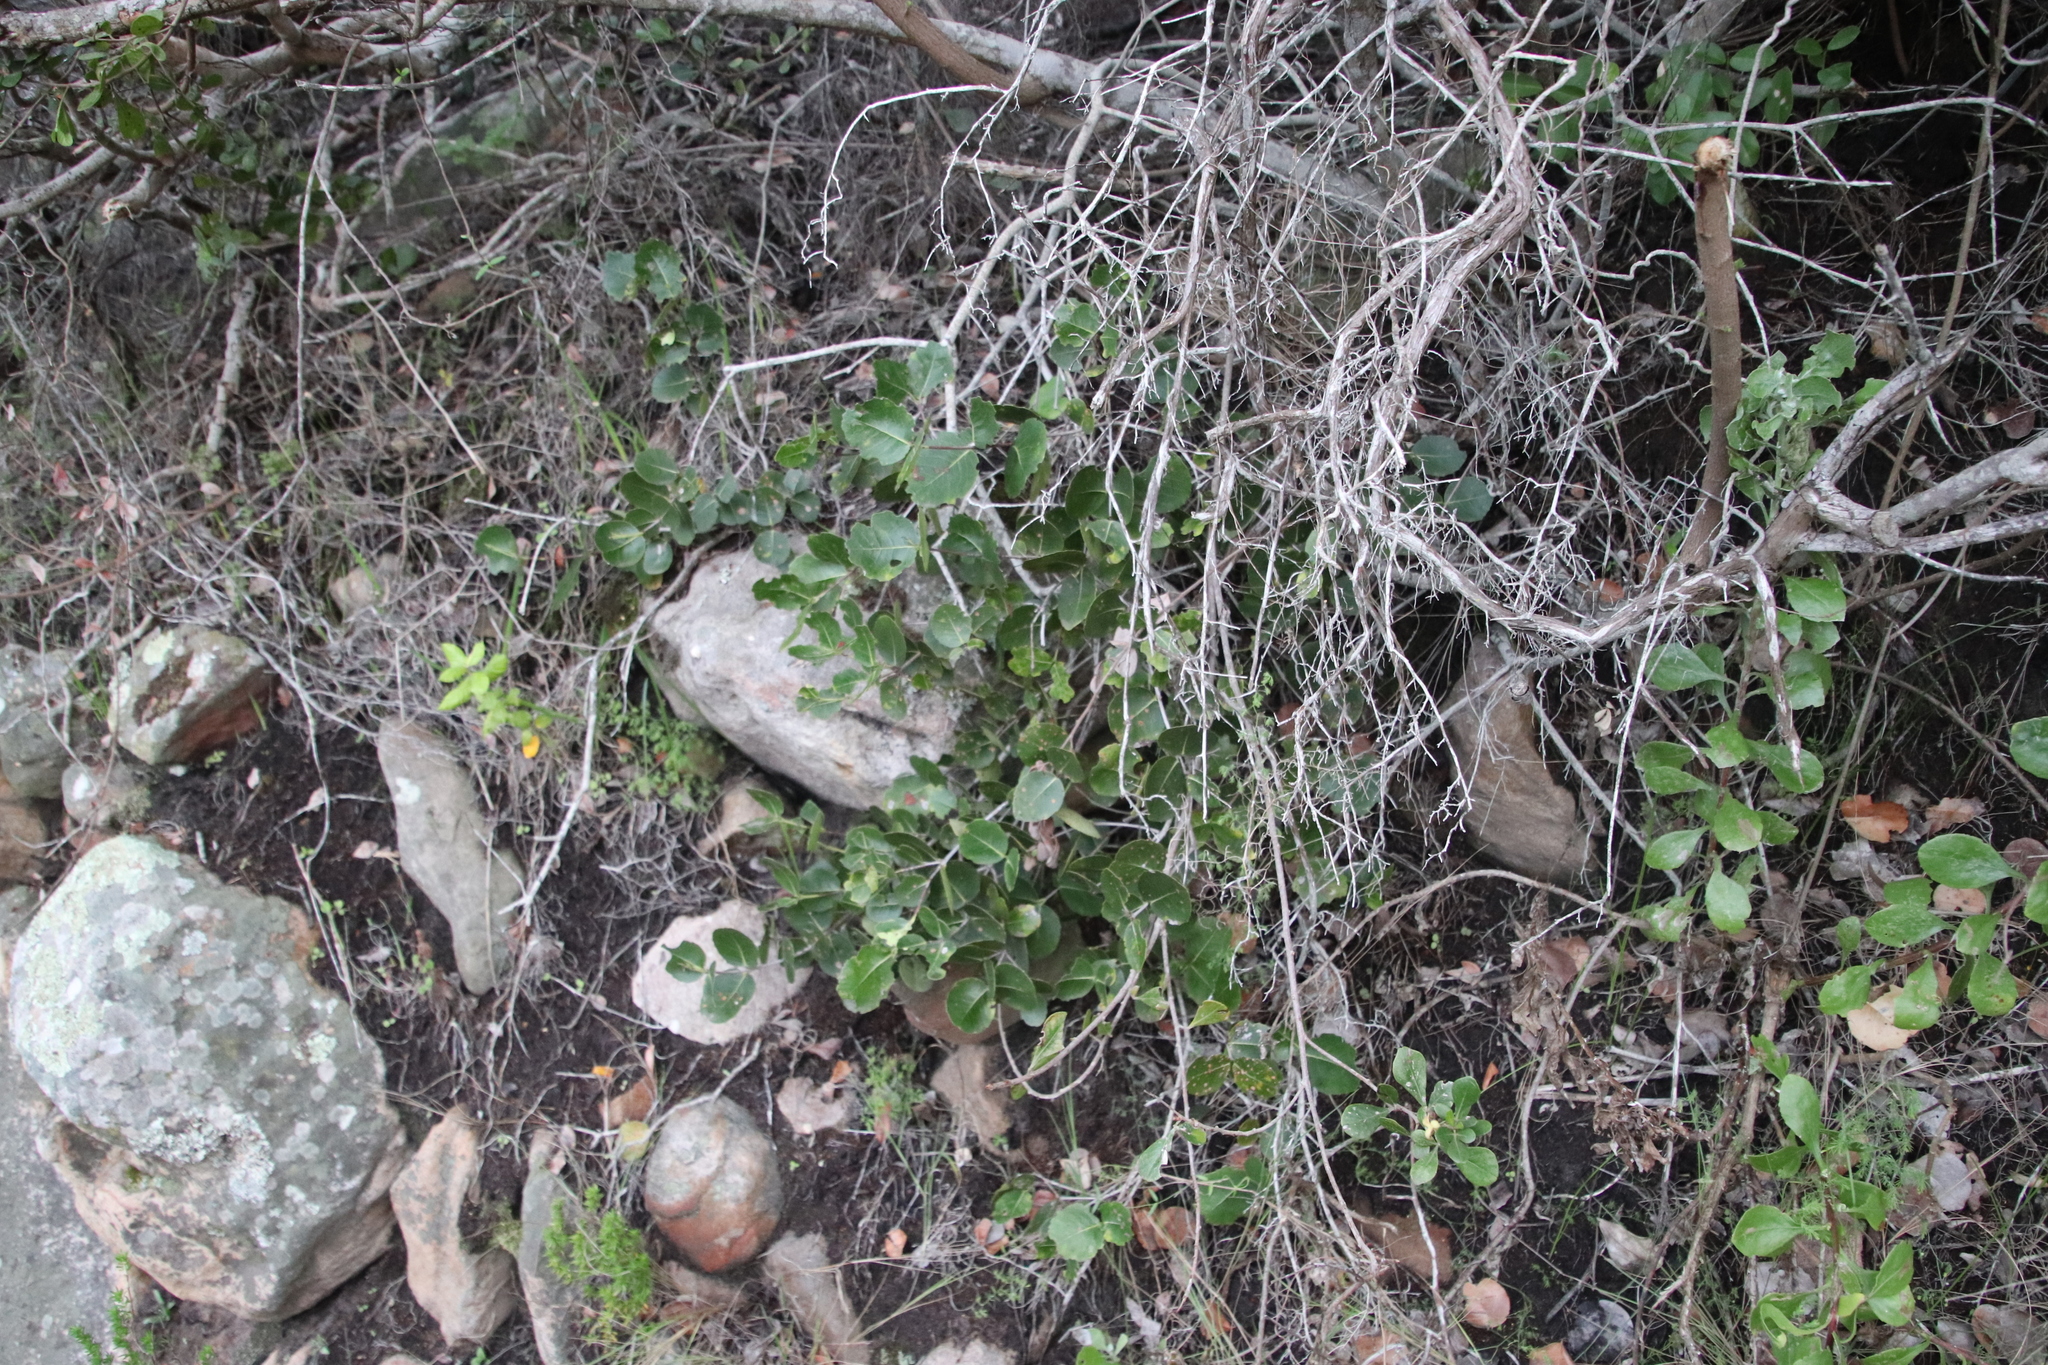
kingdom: Plantae
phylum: Tracheophyta
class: Magnoliopsida
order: Celastrales
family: Celastraceae
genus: Cassine
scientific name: Cassine peragua
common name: Cape saffron
